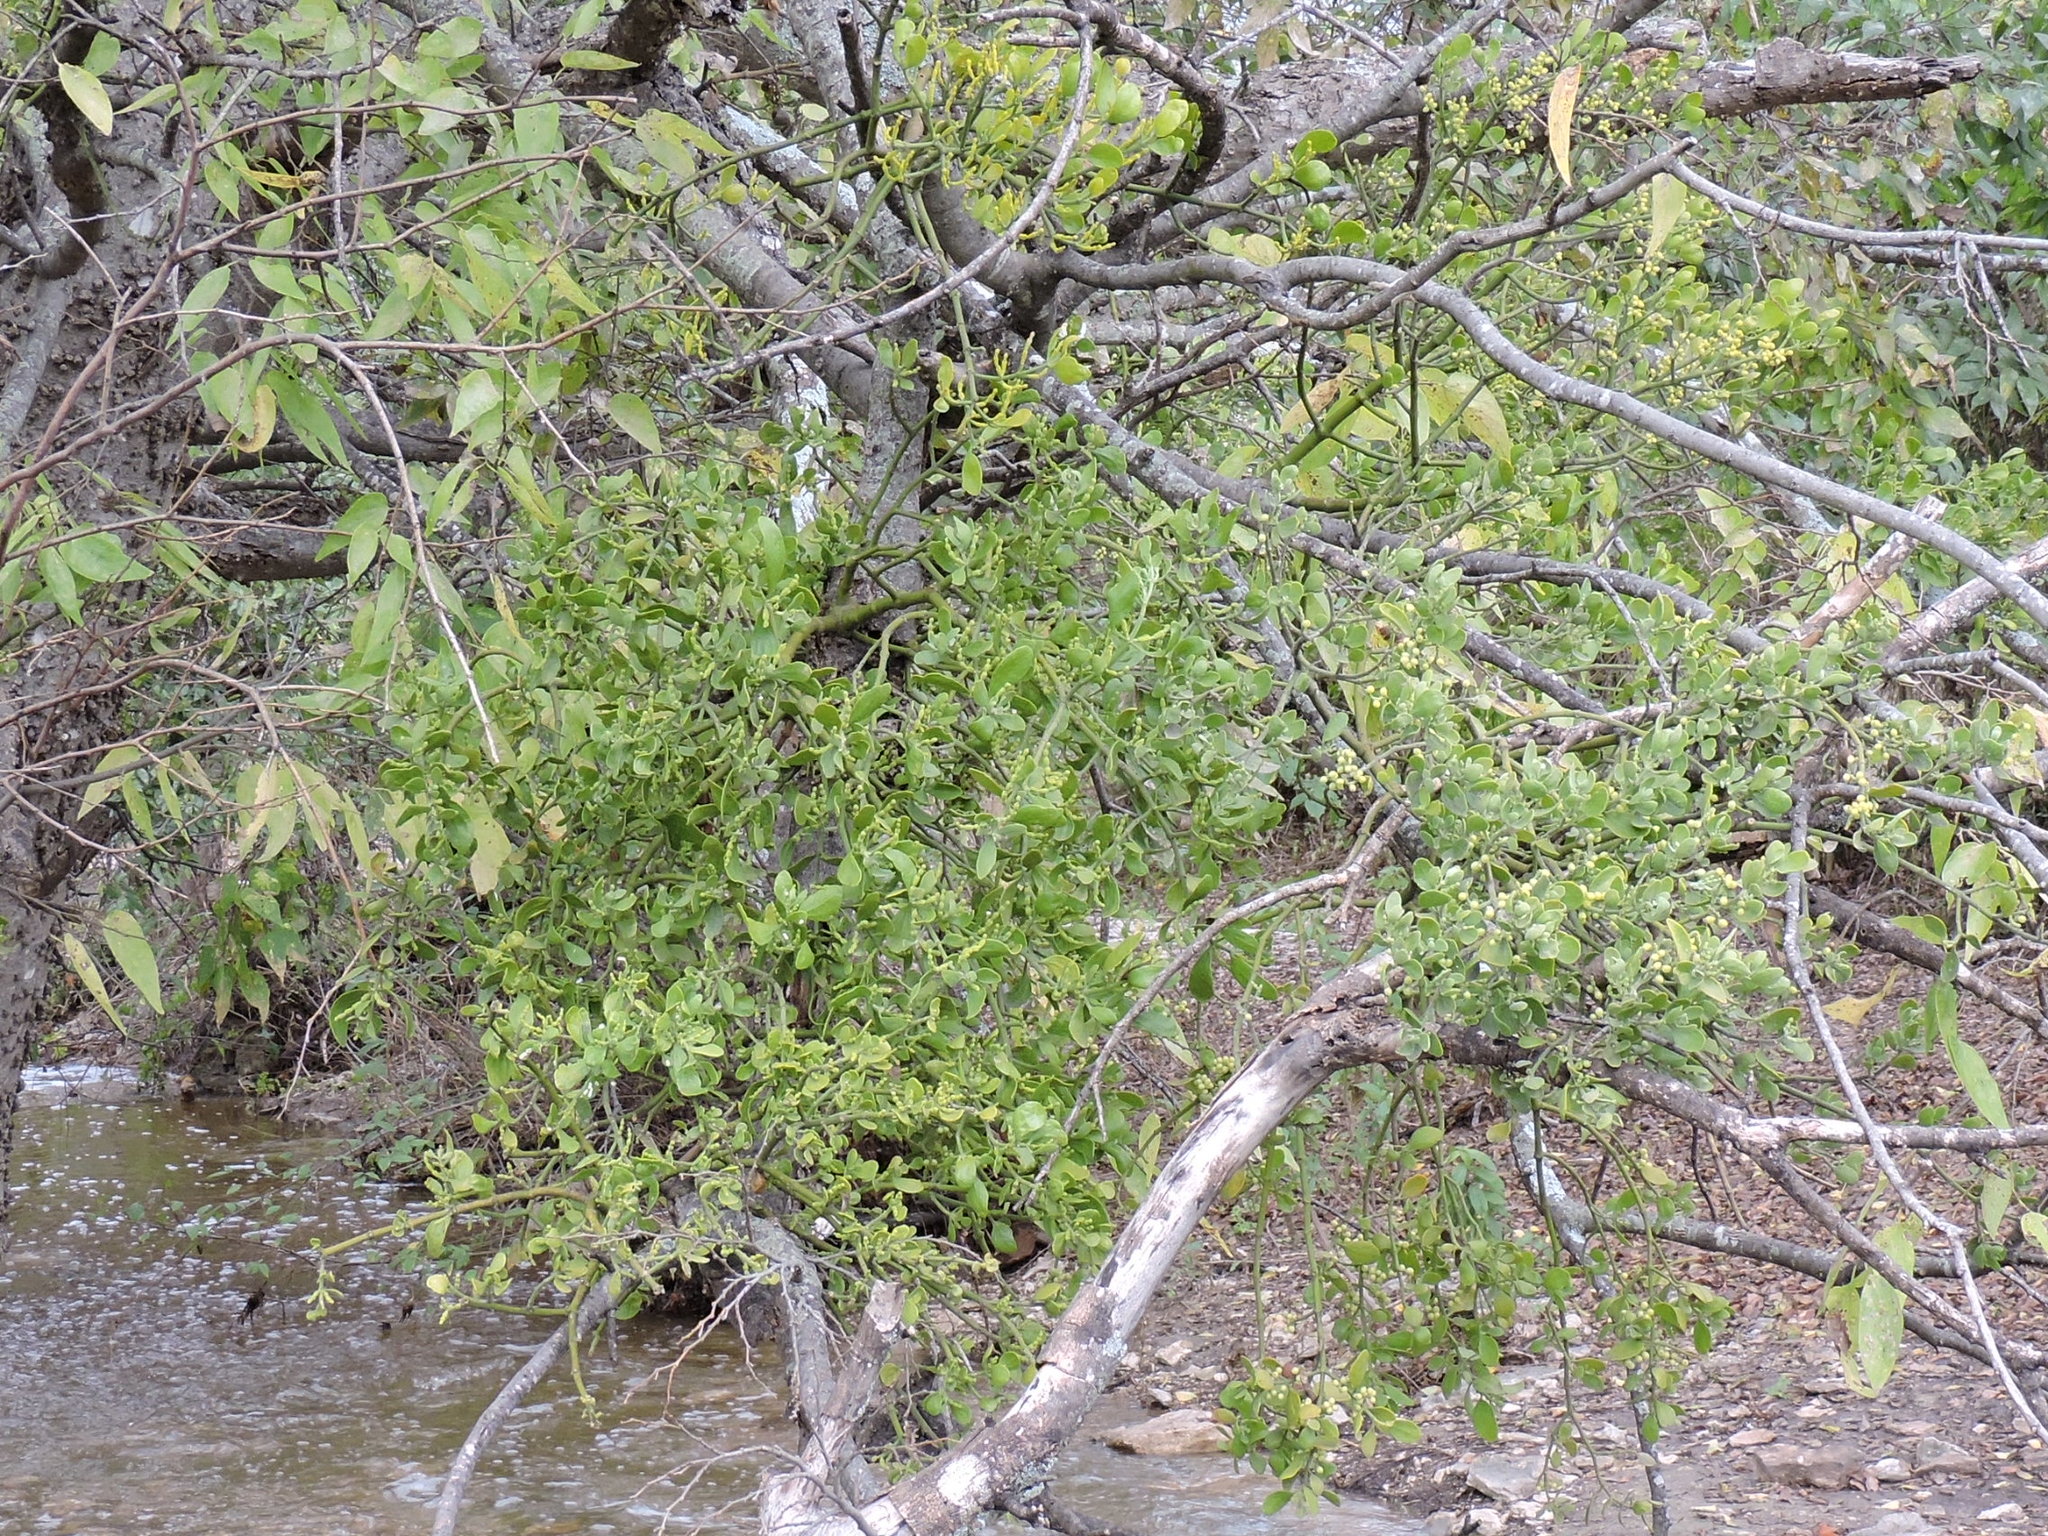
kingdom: Plantae
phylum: Tracheophyta
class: Magnoliopsida
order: Santalales
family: Viscaceae
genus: Phoradendron
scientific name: Phoradendron leucarpum
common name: Pacific mistletoe
